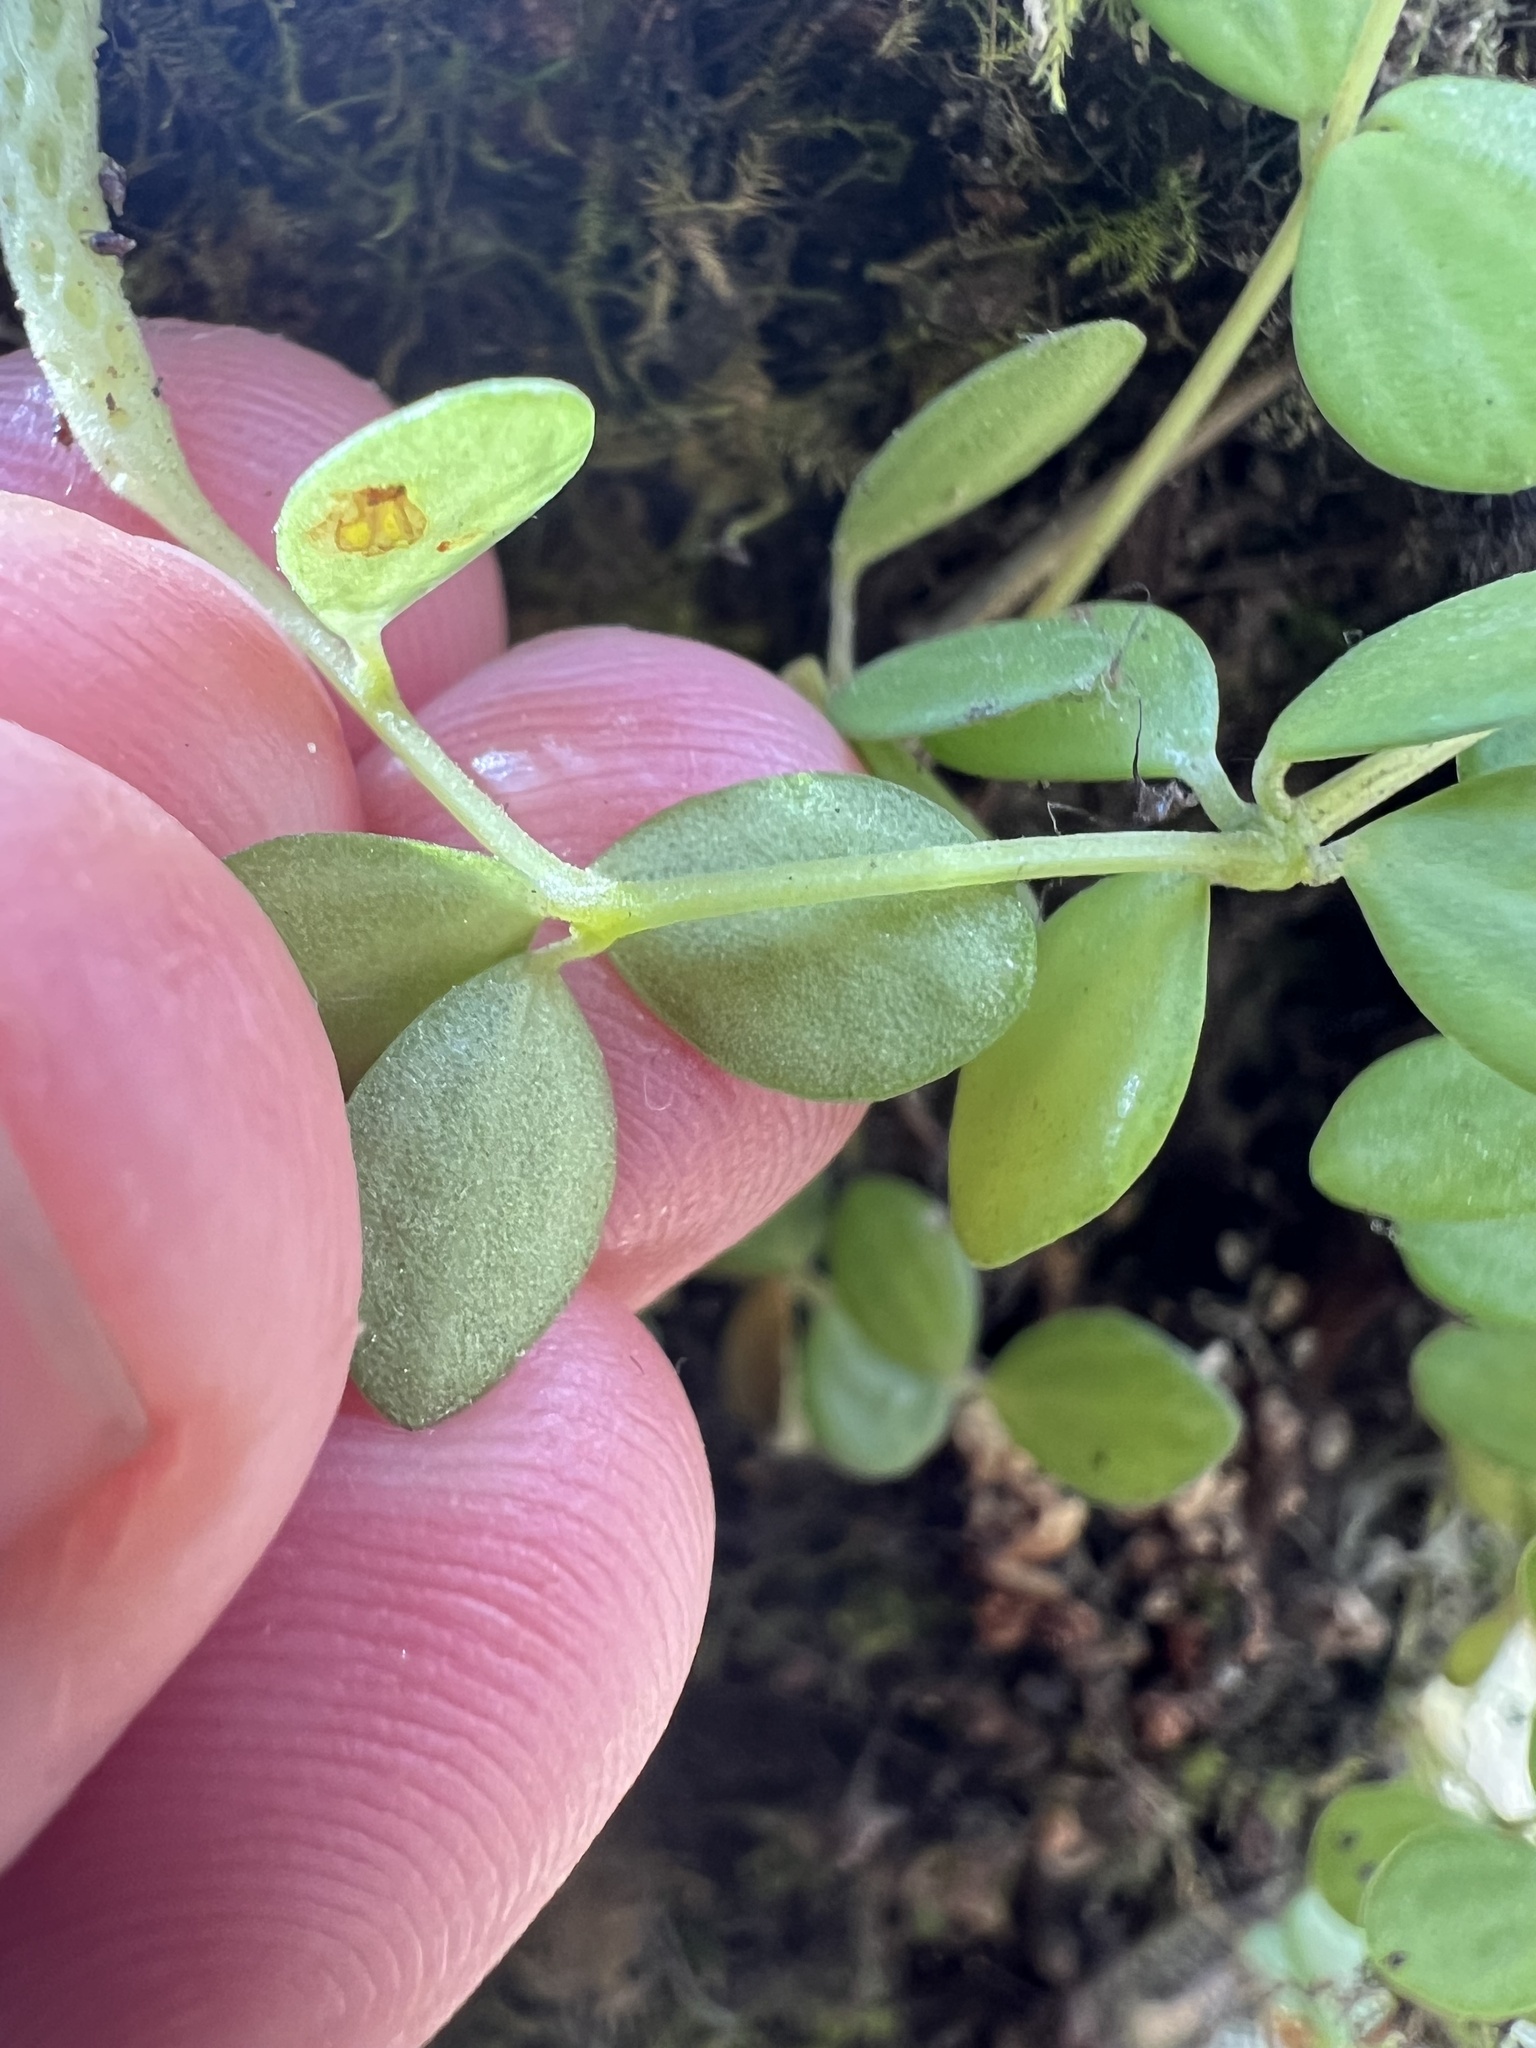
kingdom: Plantae
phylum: Tracheophyta
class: Magnoliopsida
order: Piperales
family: Piperaceae
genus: Peperomia
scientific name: Peperomia tetraphylla
